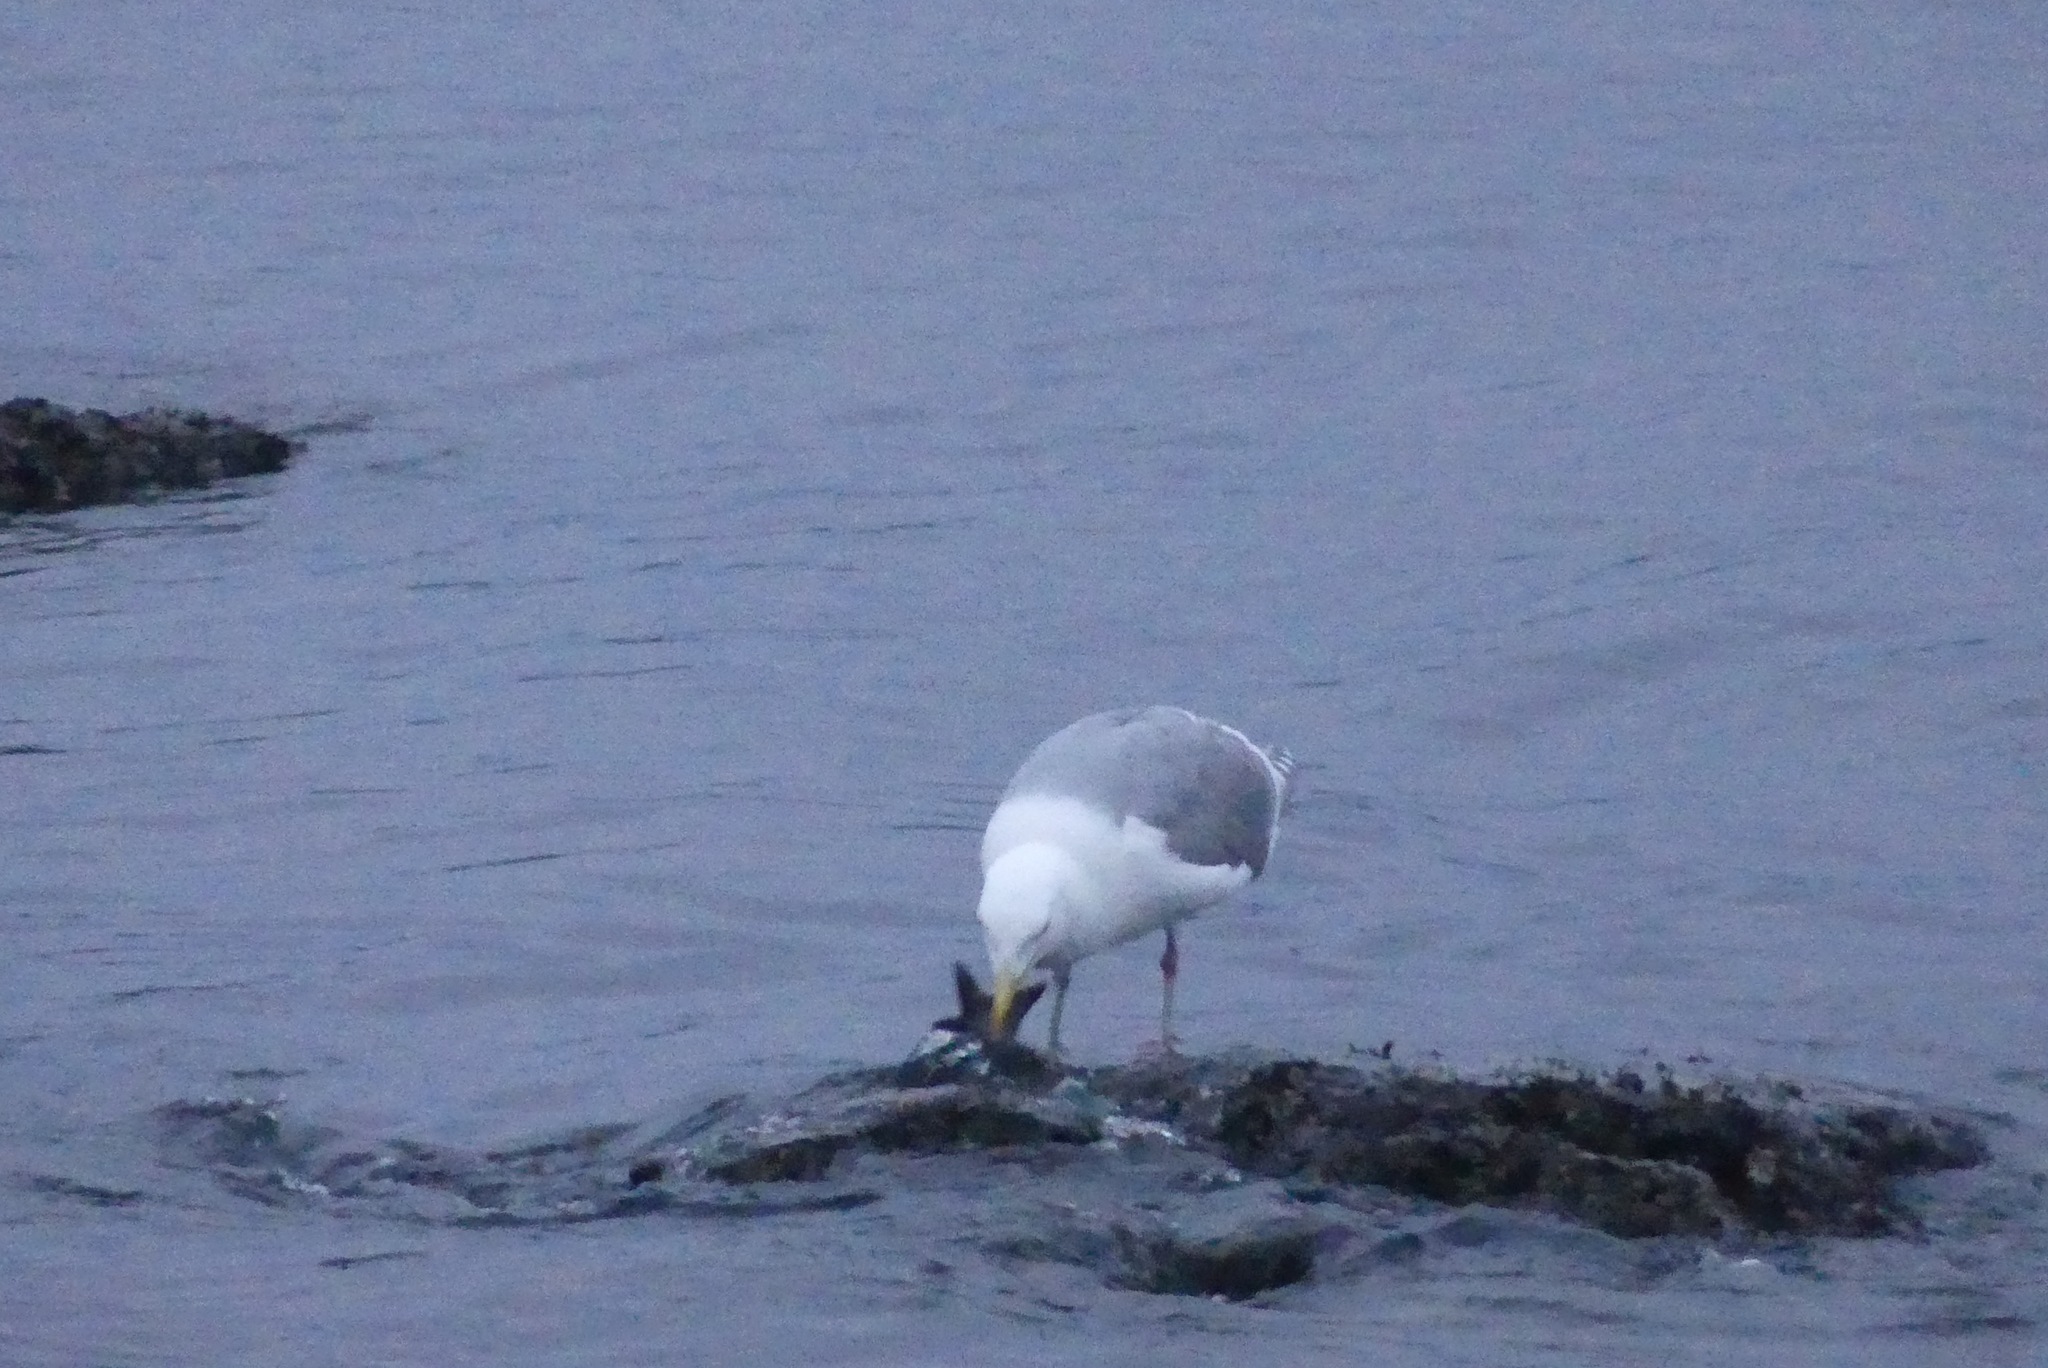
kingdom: Animalia
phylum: Chordata
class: Aves
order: Charadriiformes
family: Laridae
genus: Larus
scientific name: Larus glaucescens
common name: Glaucous-winged gull
